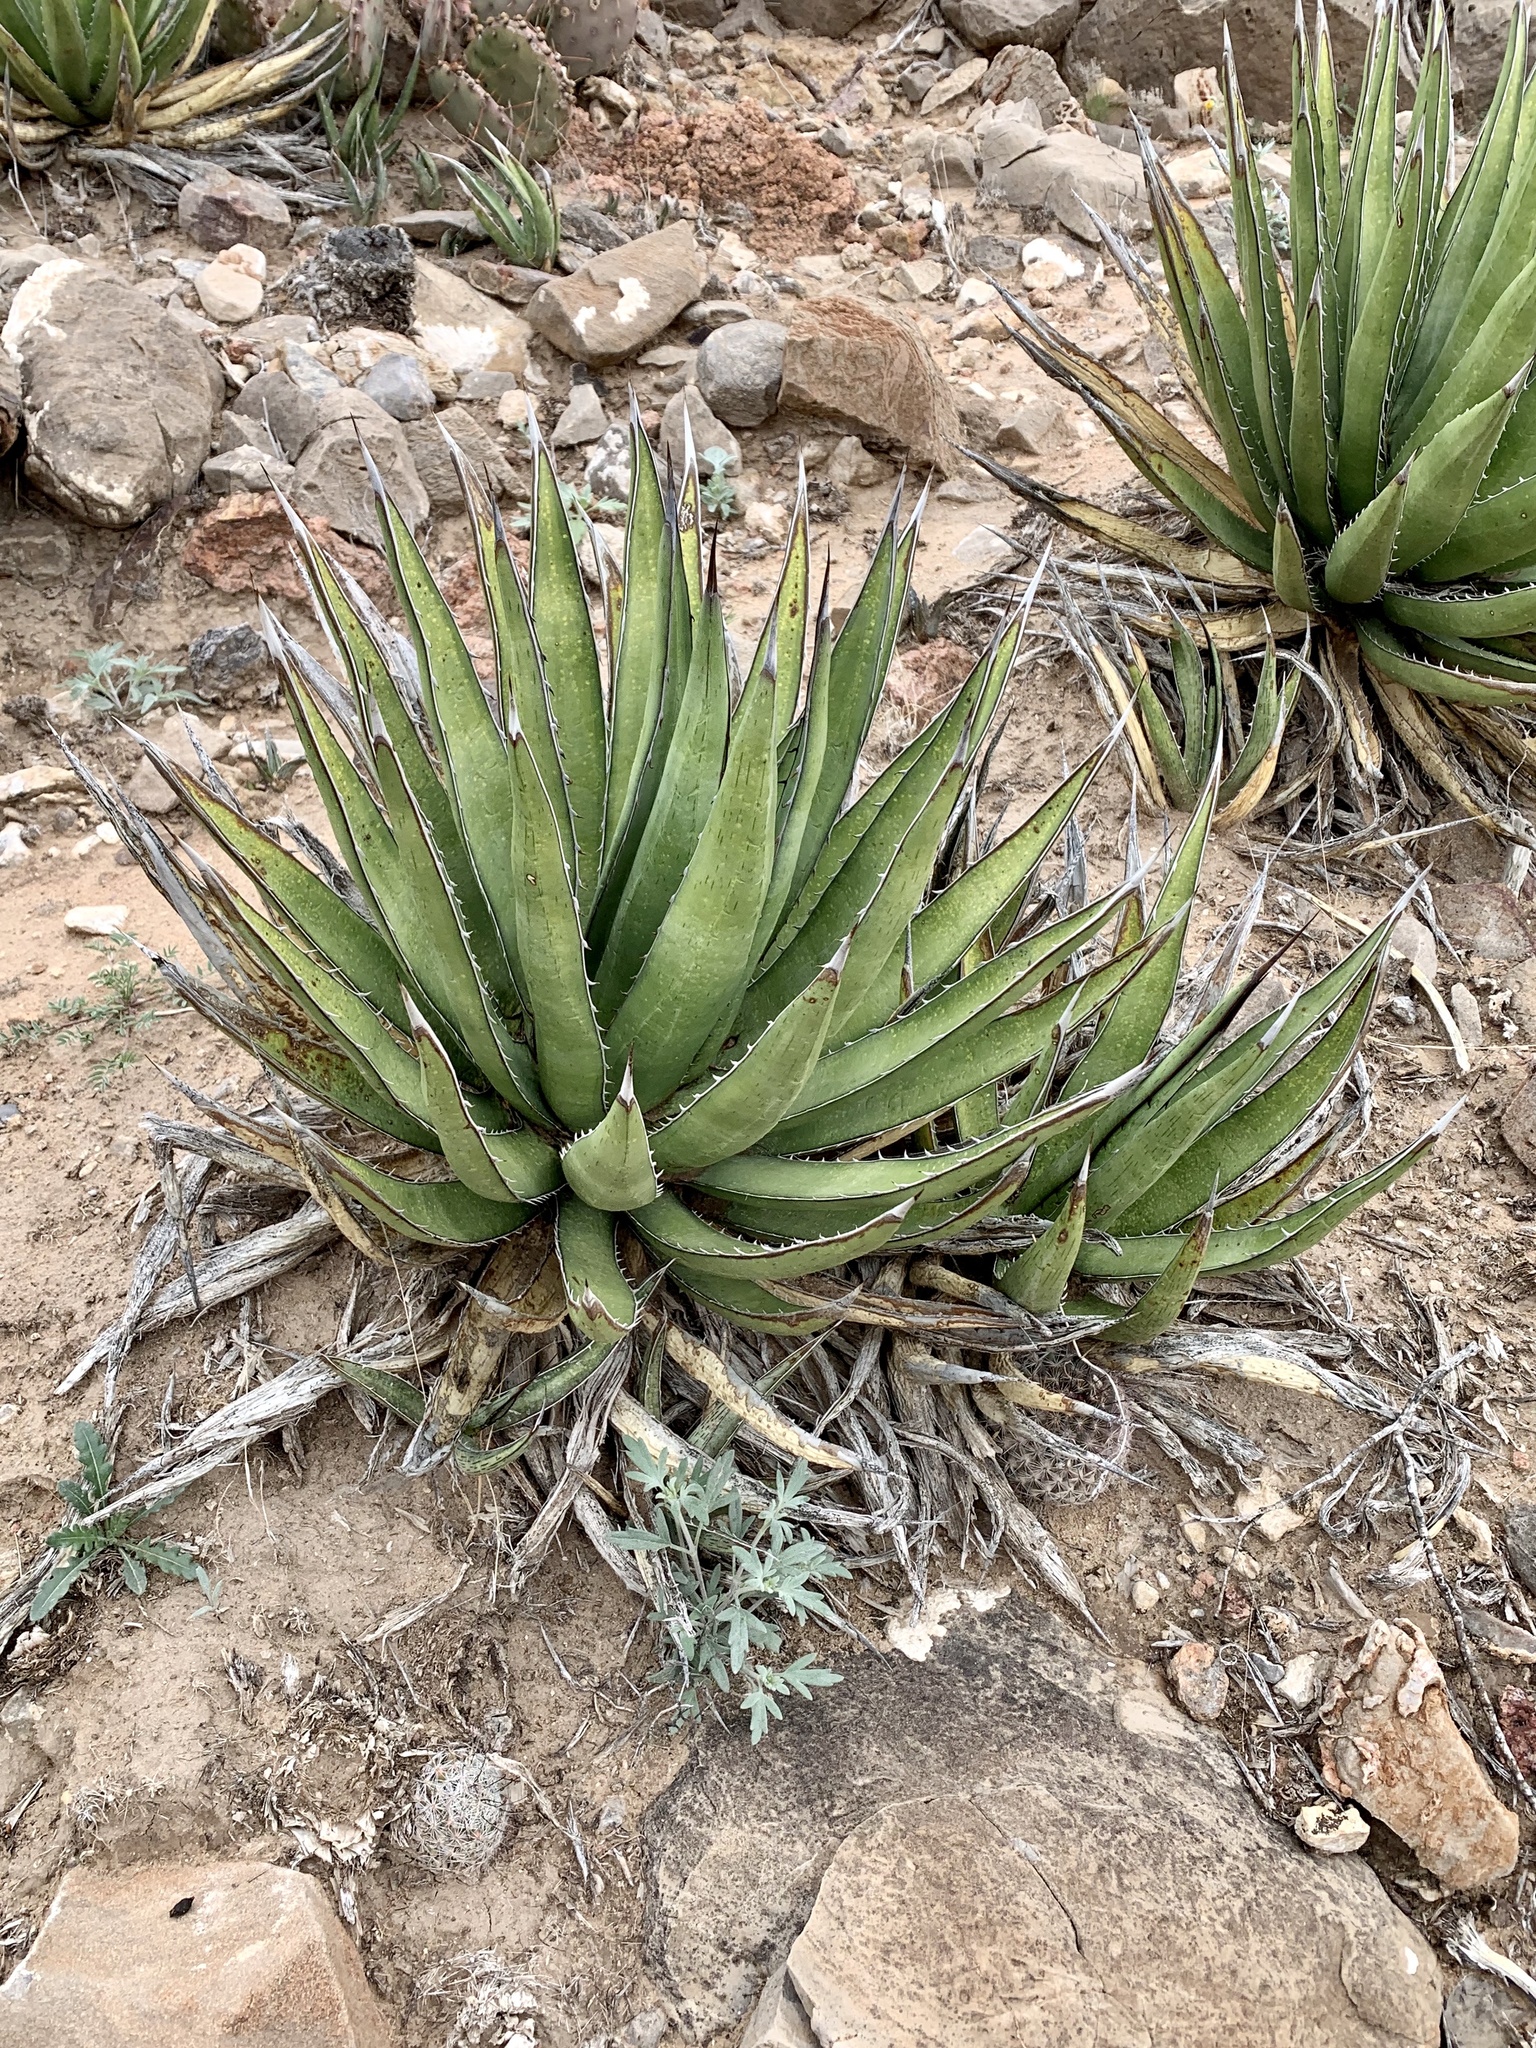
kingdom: Plantae
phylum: Tracheophyta
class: Liliopsida
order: Asparagales
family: Asparagaceae
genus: Agave
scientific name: Agave lechuguilla
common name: Lecheguilla agave
